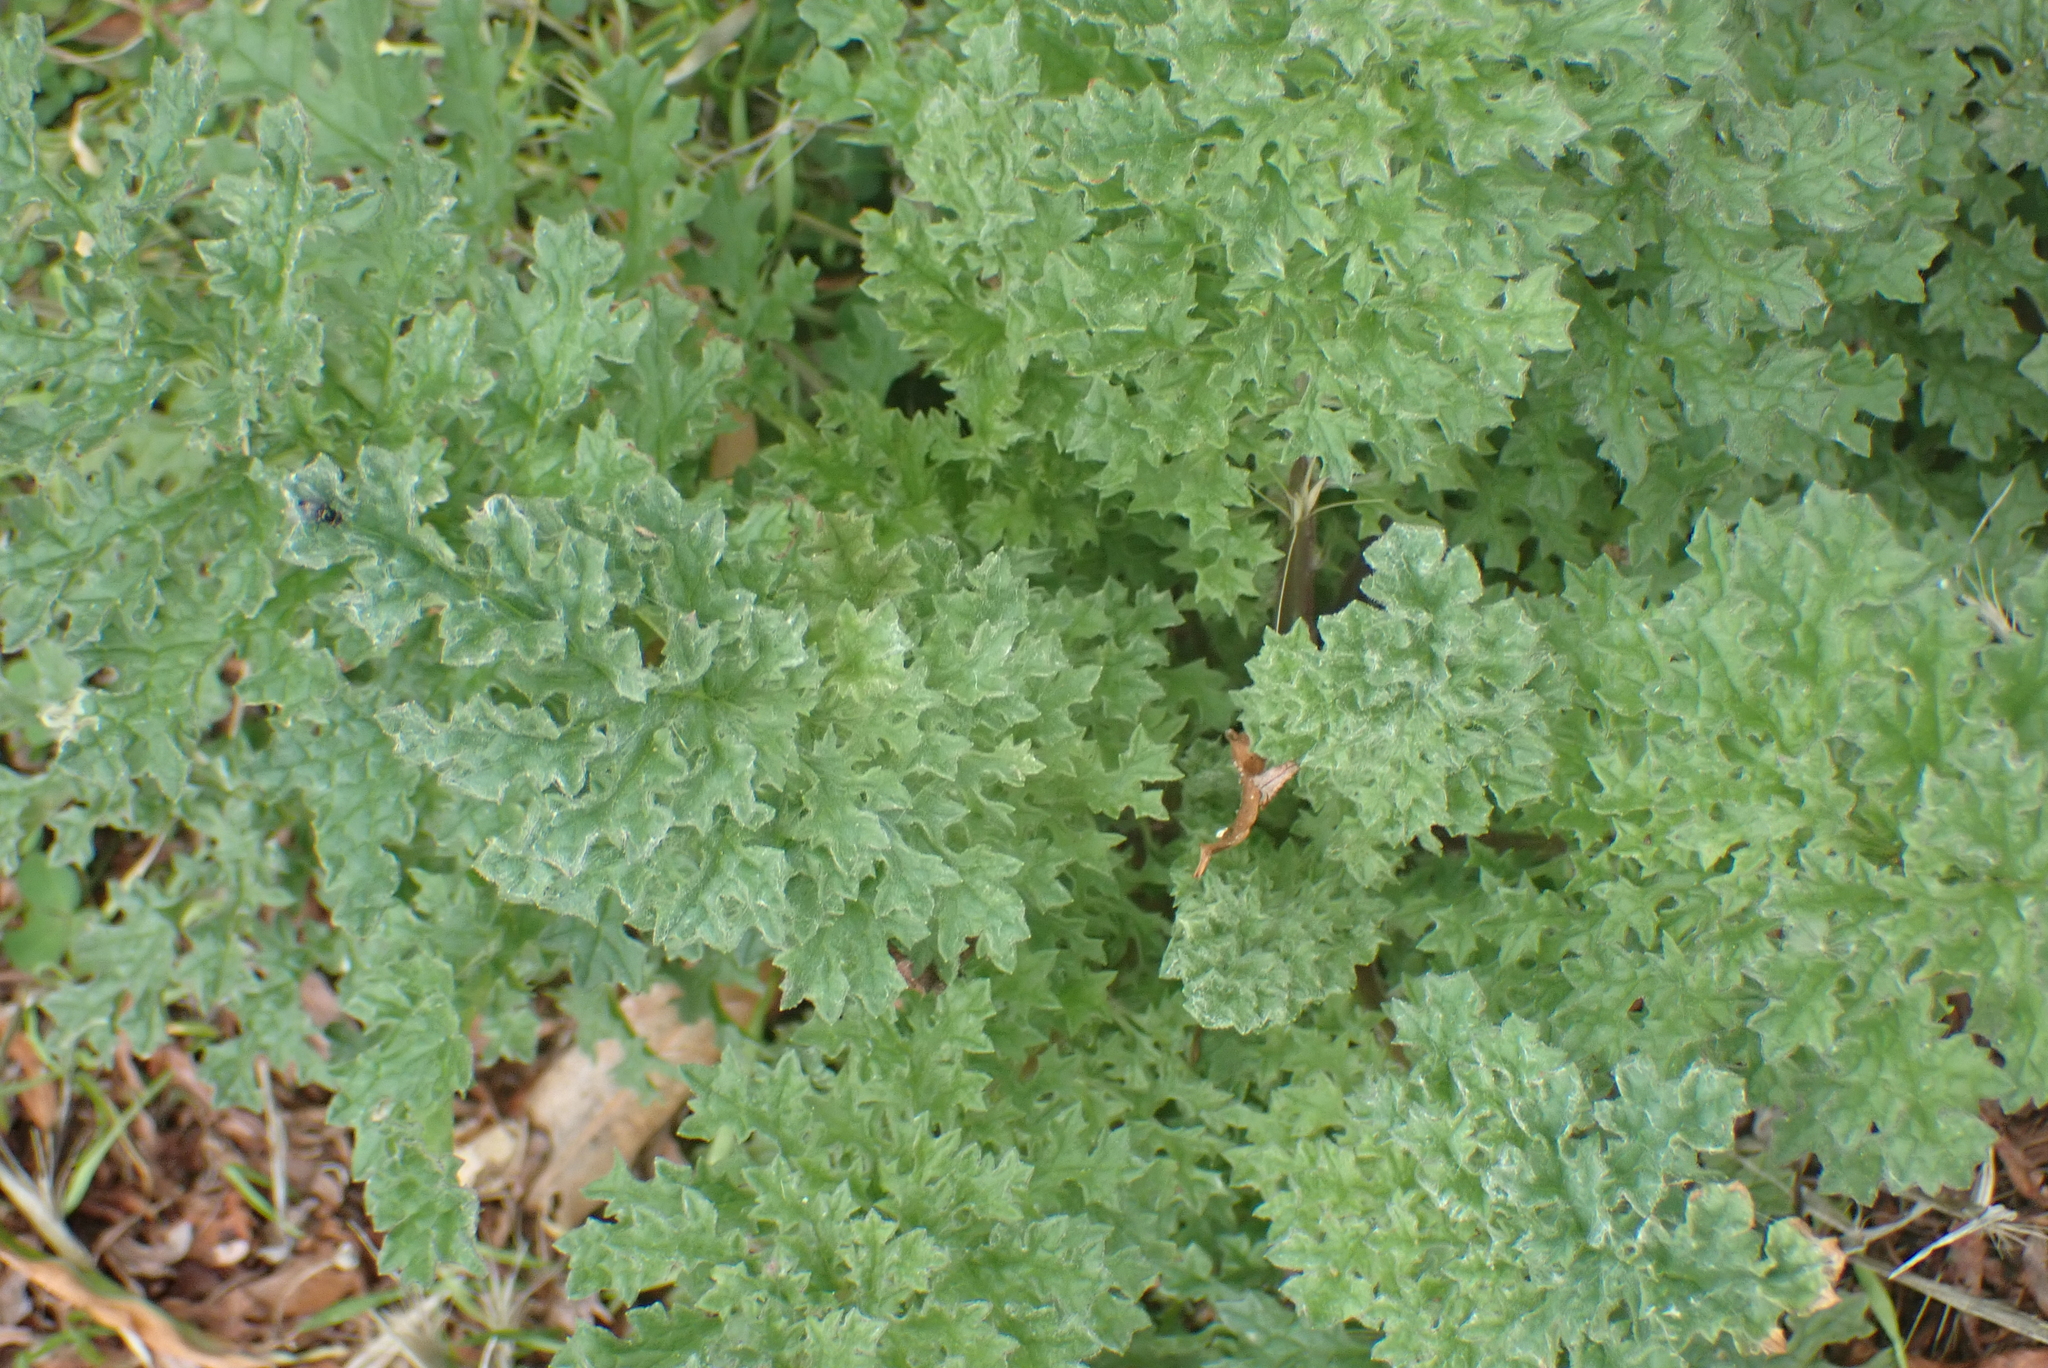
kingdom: Plantae
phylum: Tracheophyta
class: Magnoliopsida
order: Asterales
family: Asteraceae
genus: Jacobaea
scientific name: Jacobaea vulgaris
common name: Stinking willie
